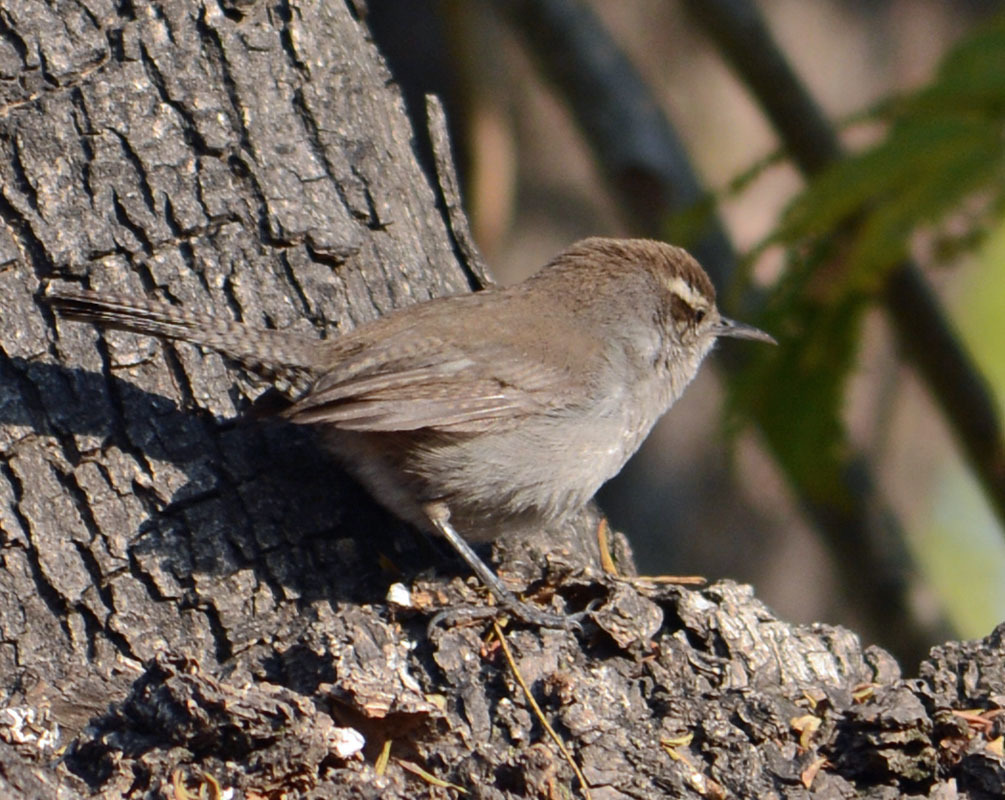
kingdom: Animalia
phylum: Chordata
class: Aves
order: Passeriformes
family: Troglodytidae
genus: Thryomanes
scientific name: Thryomanes bewickii
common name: Bewick's wren
